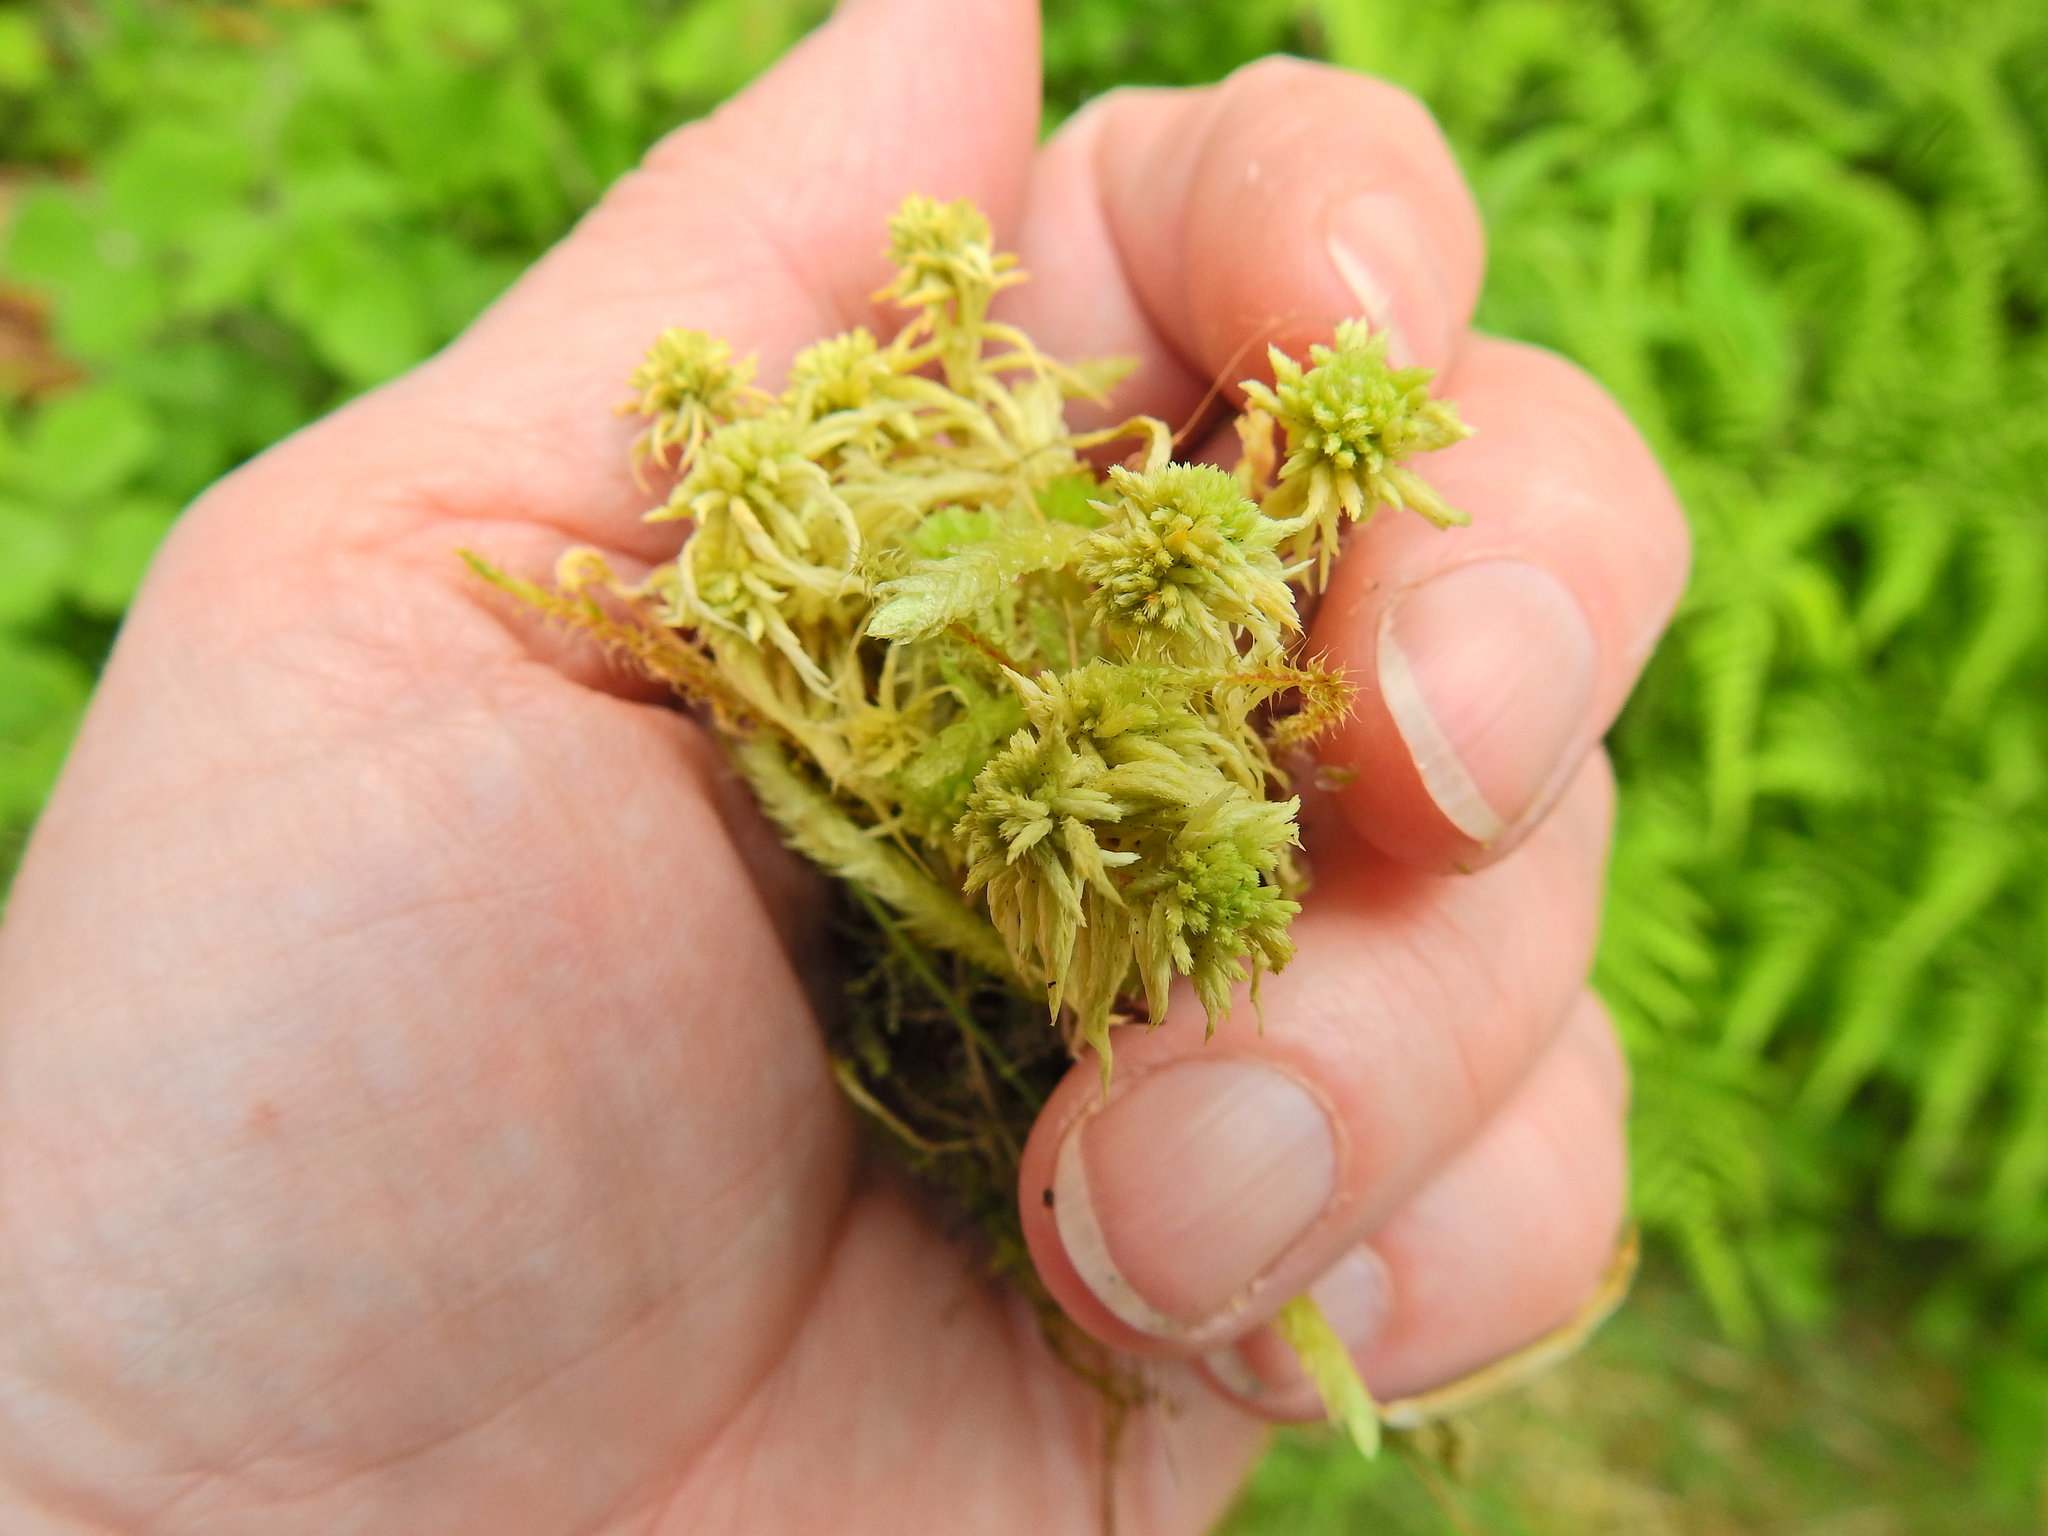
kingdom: Plantae
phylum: Bryophyta
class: Sphagnopsida
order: Sphagnales
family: Sphagnaceae
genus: Sphagnum
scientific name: Sphagnum fimbriatum
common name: Fringed peat moss
